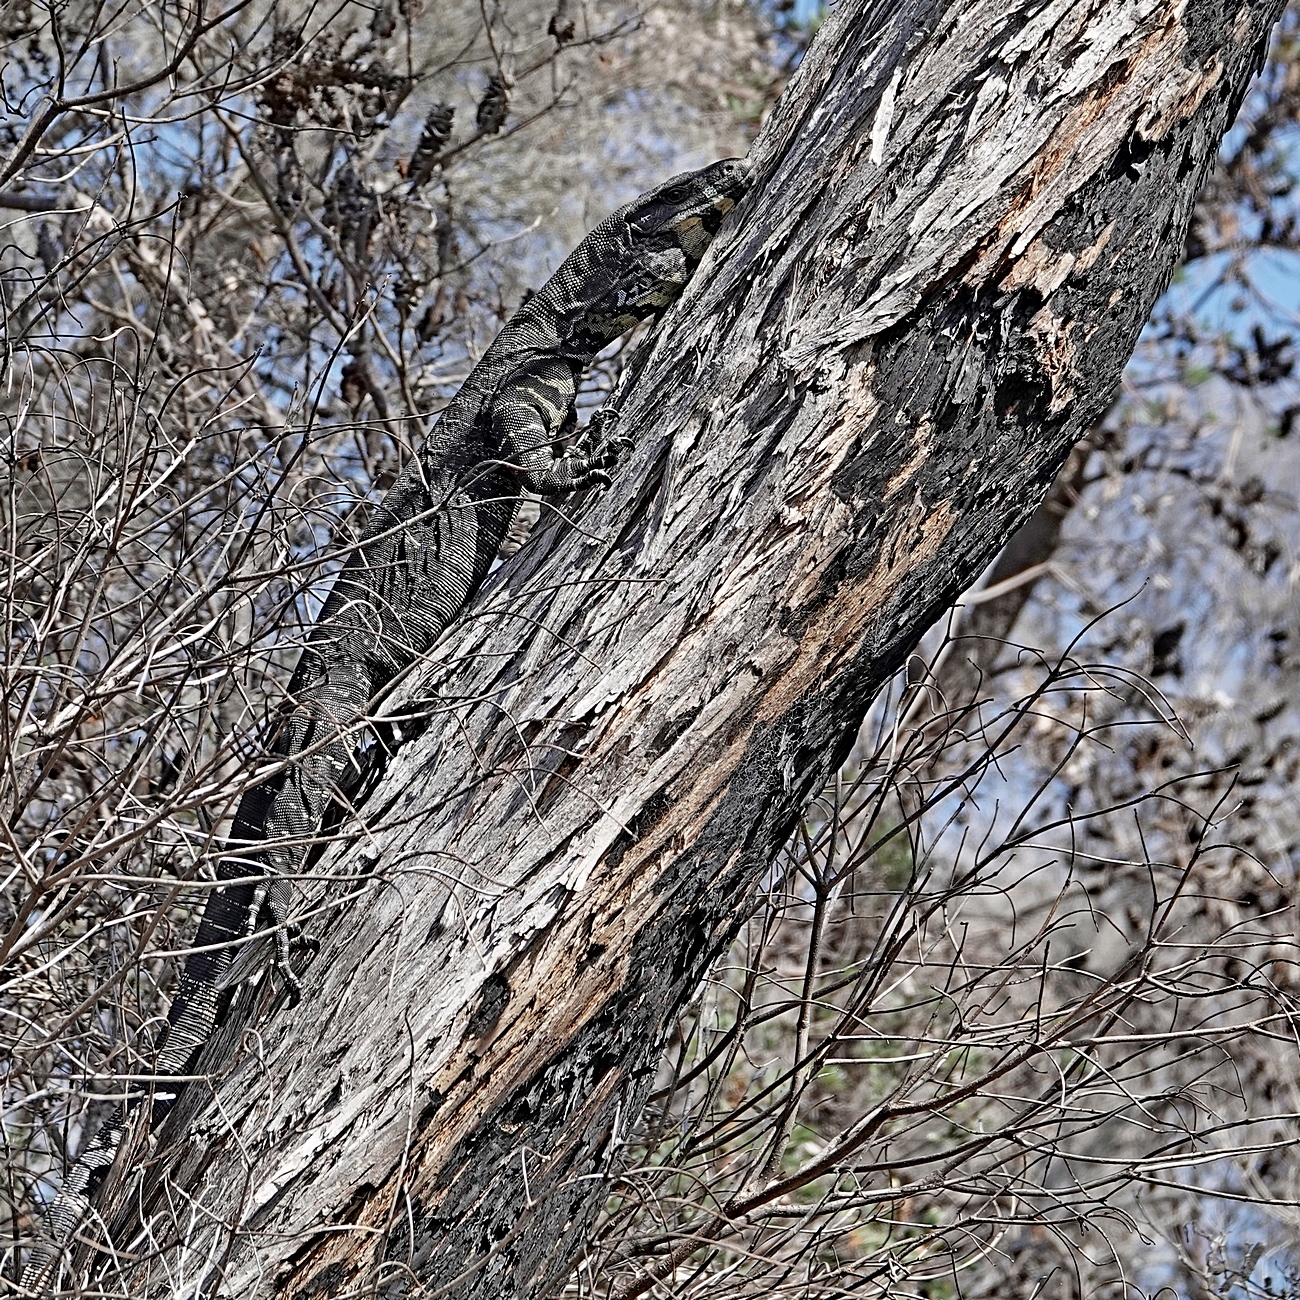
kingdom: Animalia
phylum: Chordata
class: Squamata
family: Varanidae
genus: Varanus
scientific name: Varanus varius
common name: Lace monitor
